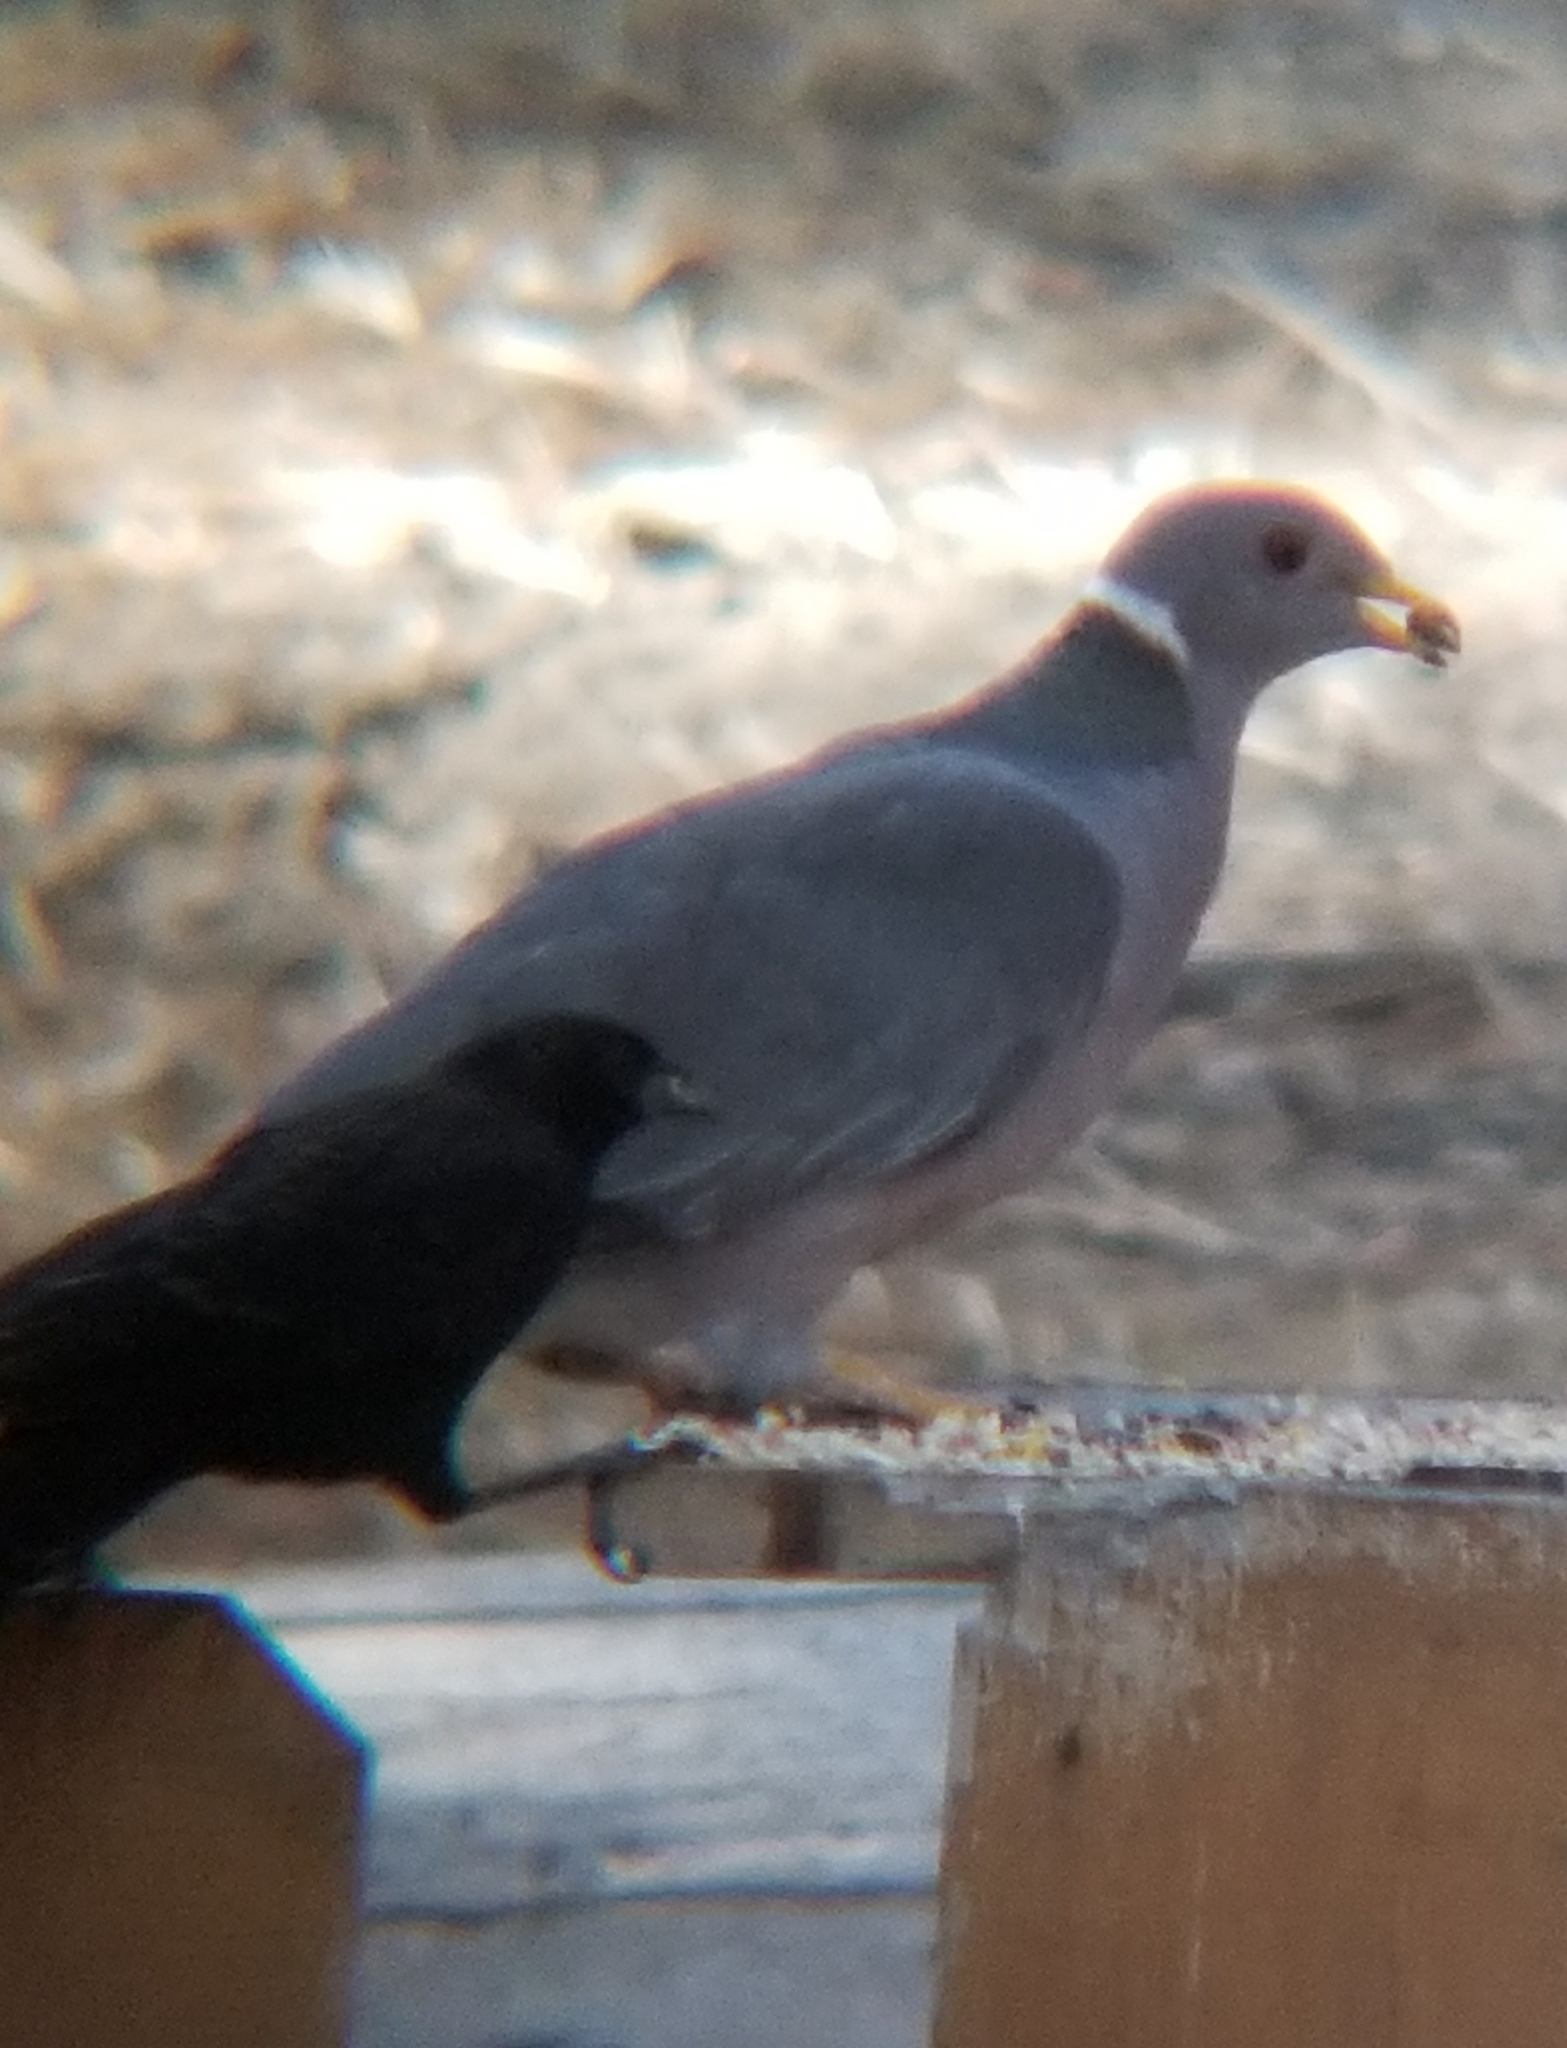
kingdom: Animalia
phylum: Chordata
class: Aves
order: Columbiformes
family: Columbidae
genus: Patagioenas
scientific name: Patagioenas fasciata
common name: Band-tailed pigeon
